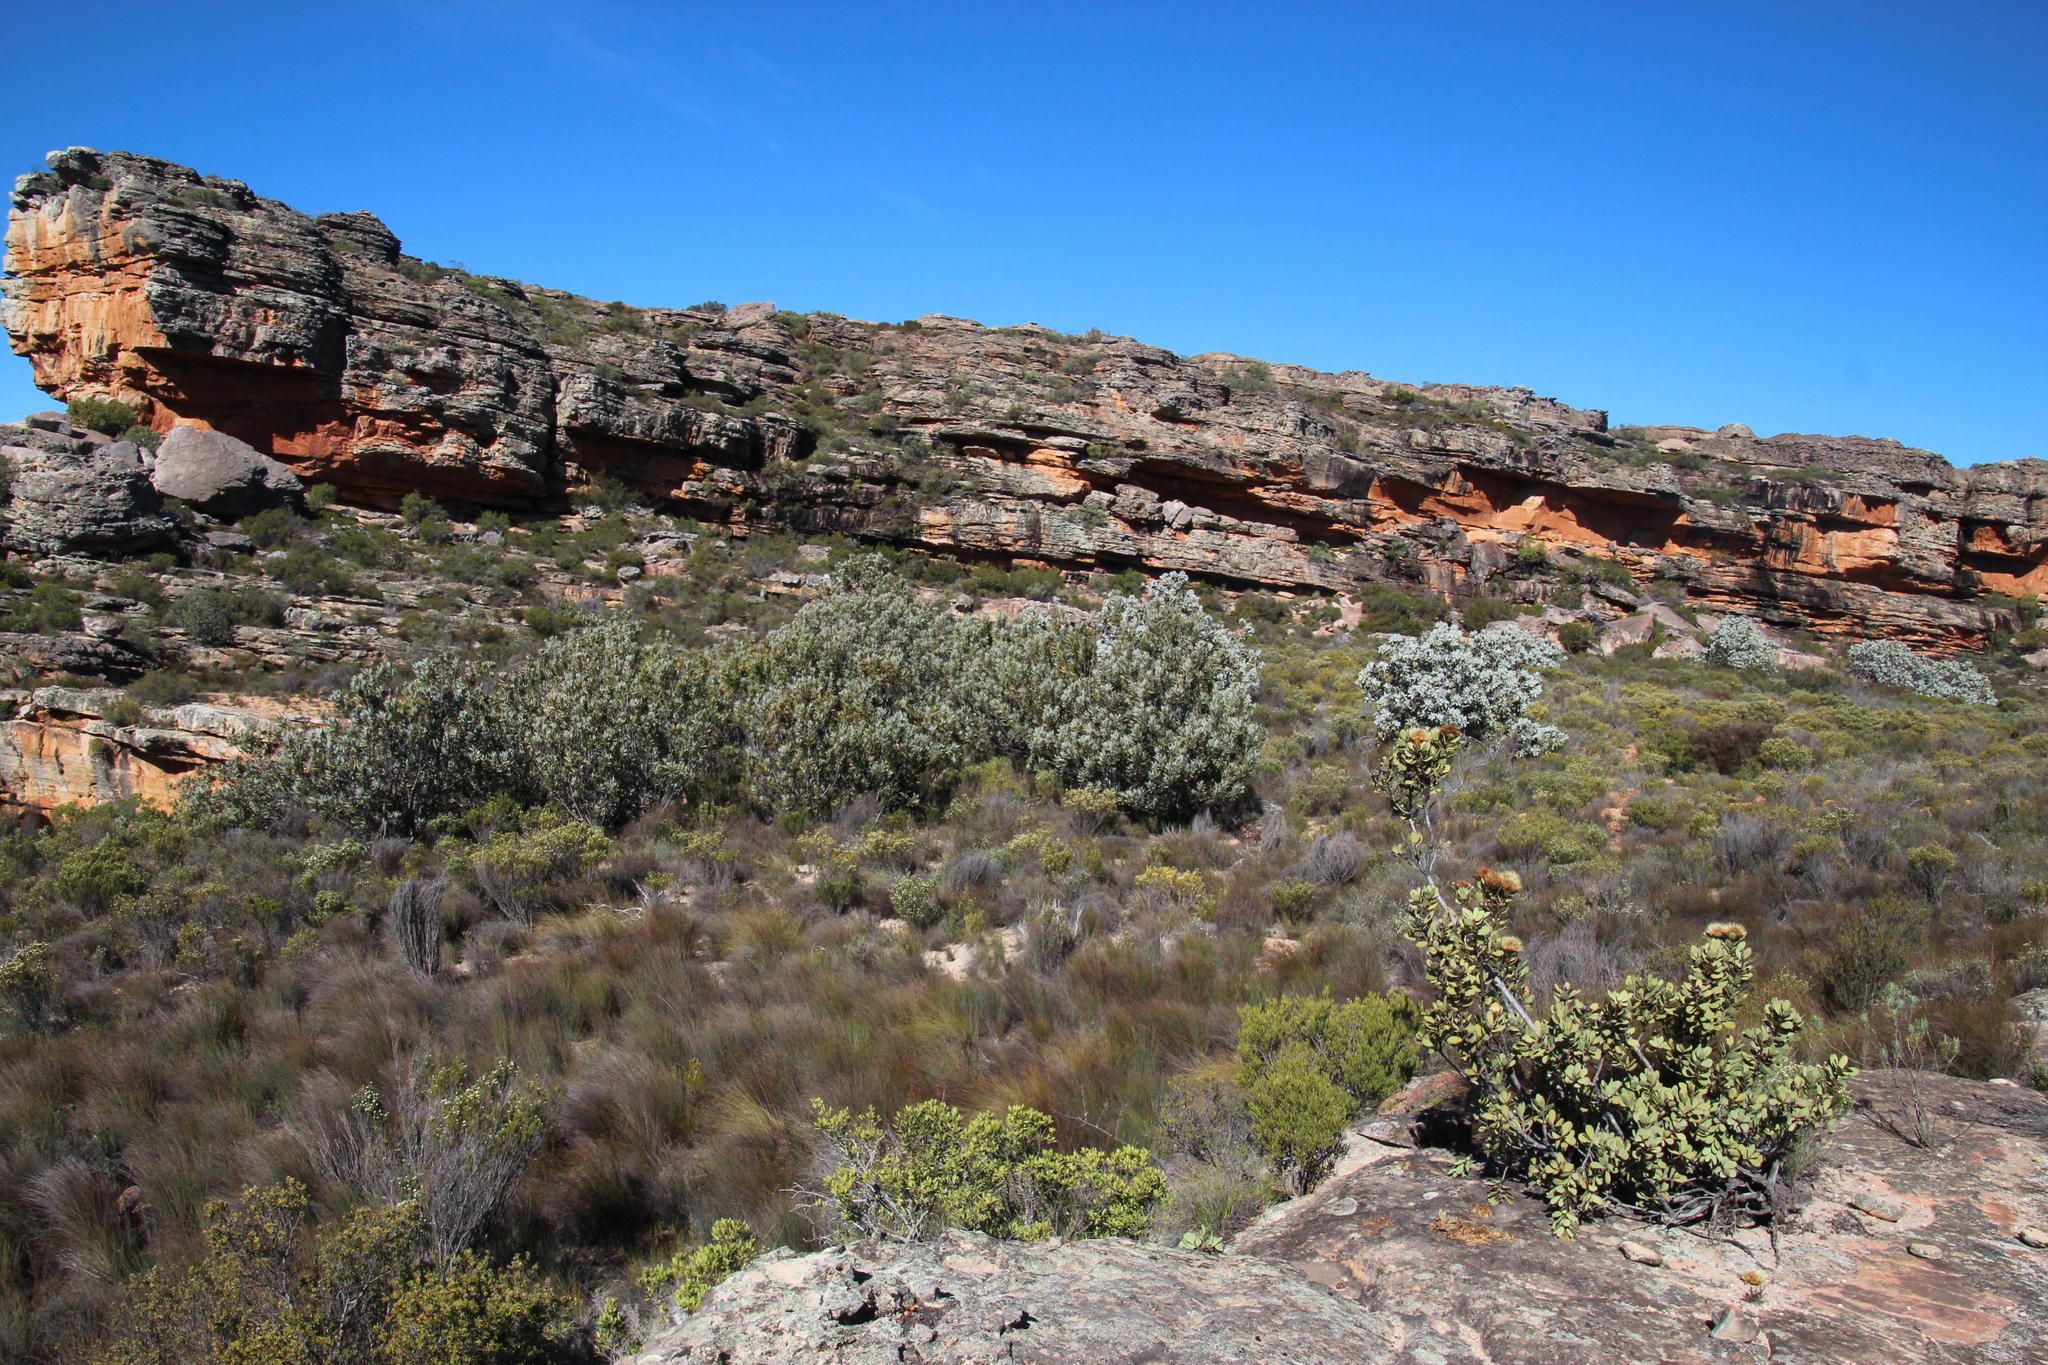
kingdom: Plantae
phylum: Tracheophyta
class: Magnoliopsida
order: Proteales
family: Proteaceae
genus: Protea
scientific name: Protea laurifolia
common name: Grey-leaf sugarbsh
